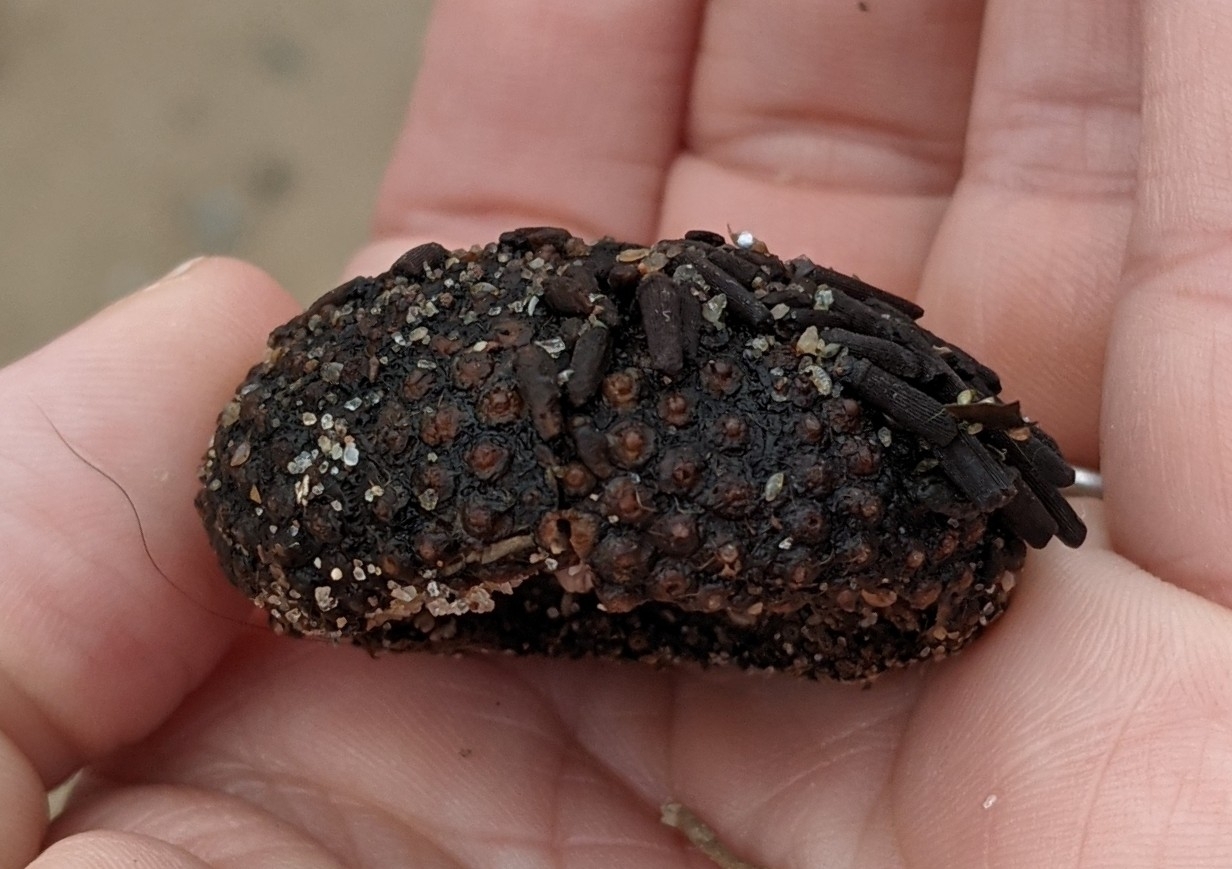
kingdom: Animalia
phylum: Echinodermata
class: Echinoidea
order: Arbacioida
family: Arbaciidae
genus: Arbacia
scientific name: Arbacia punctulata
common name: Purple-spined sea urchin
